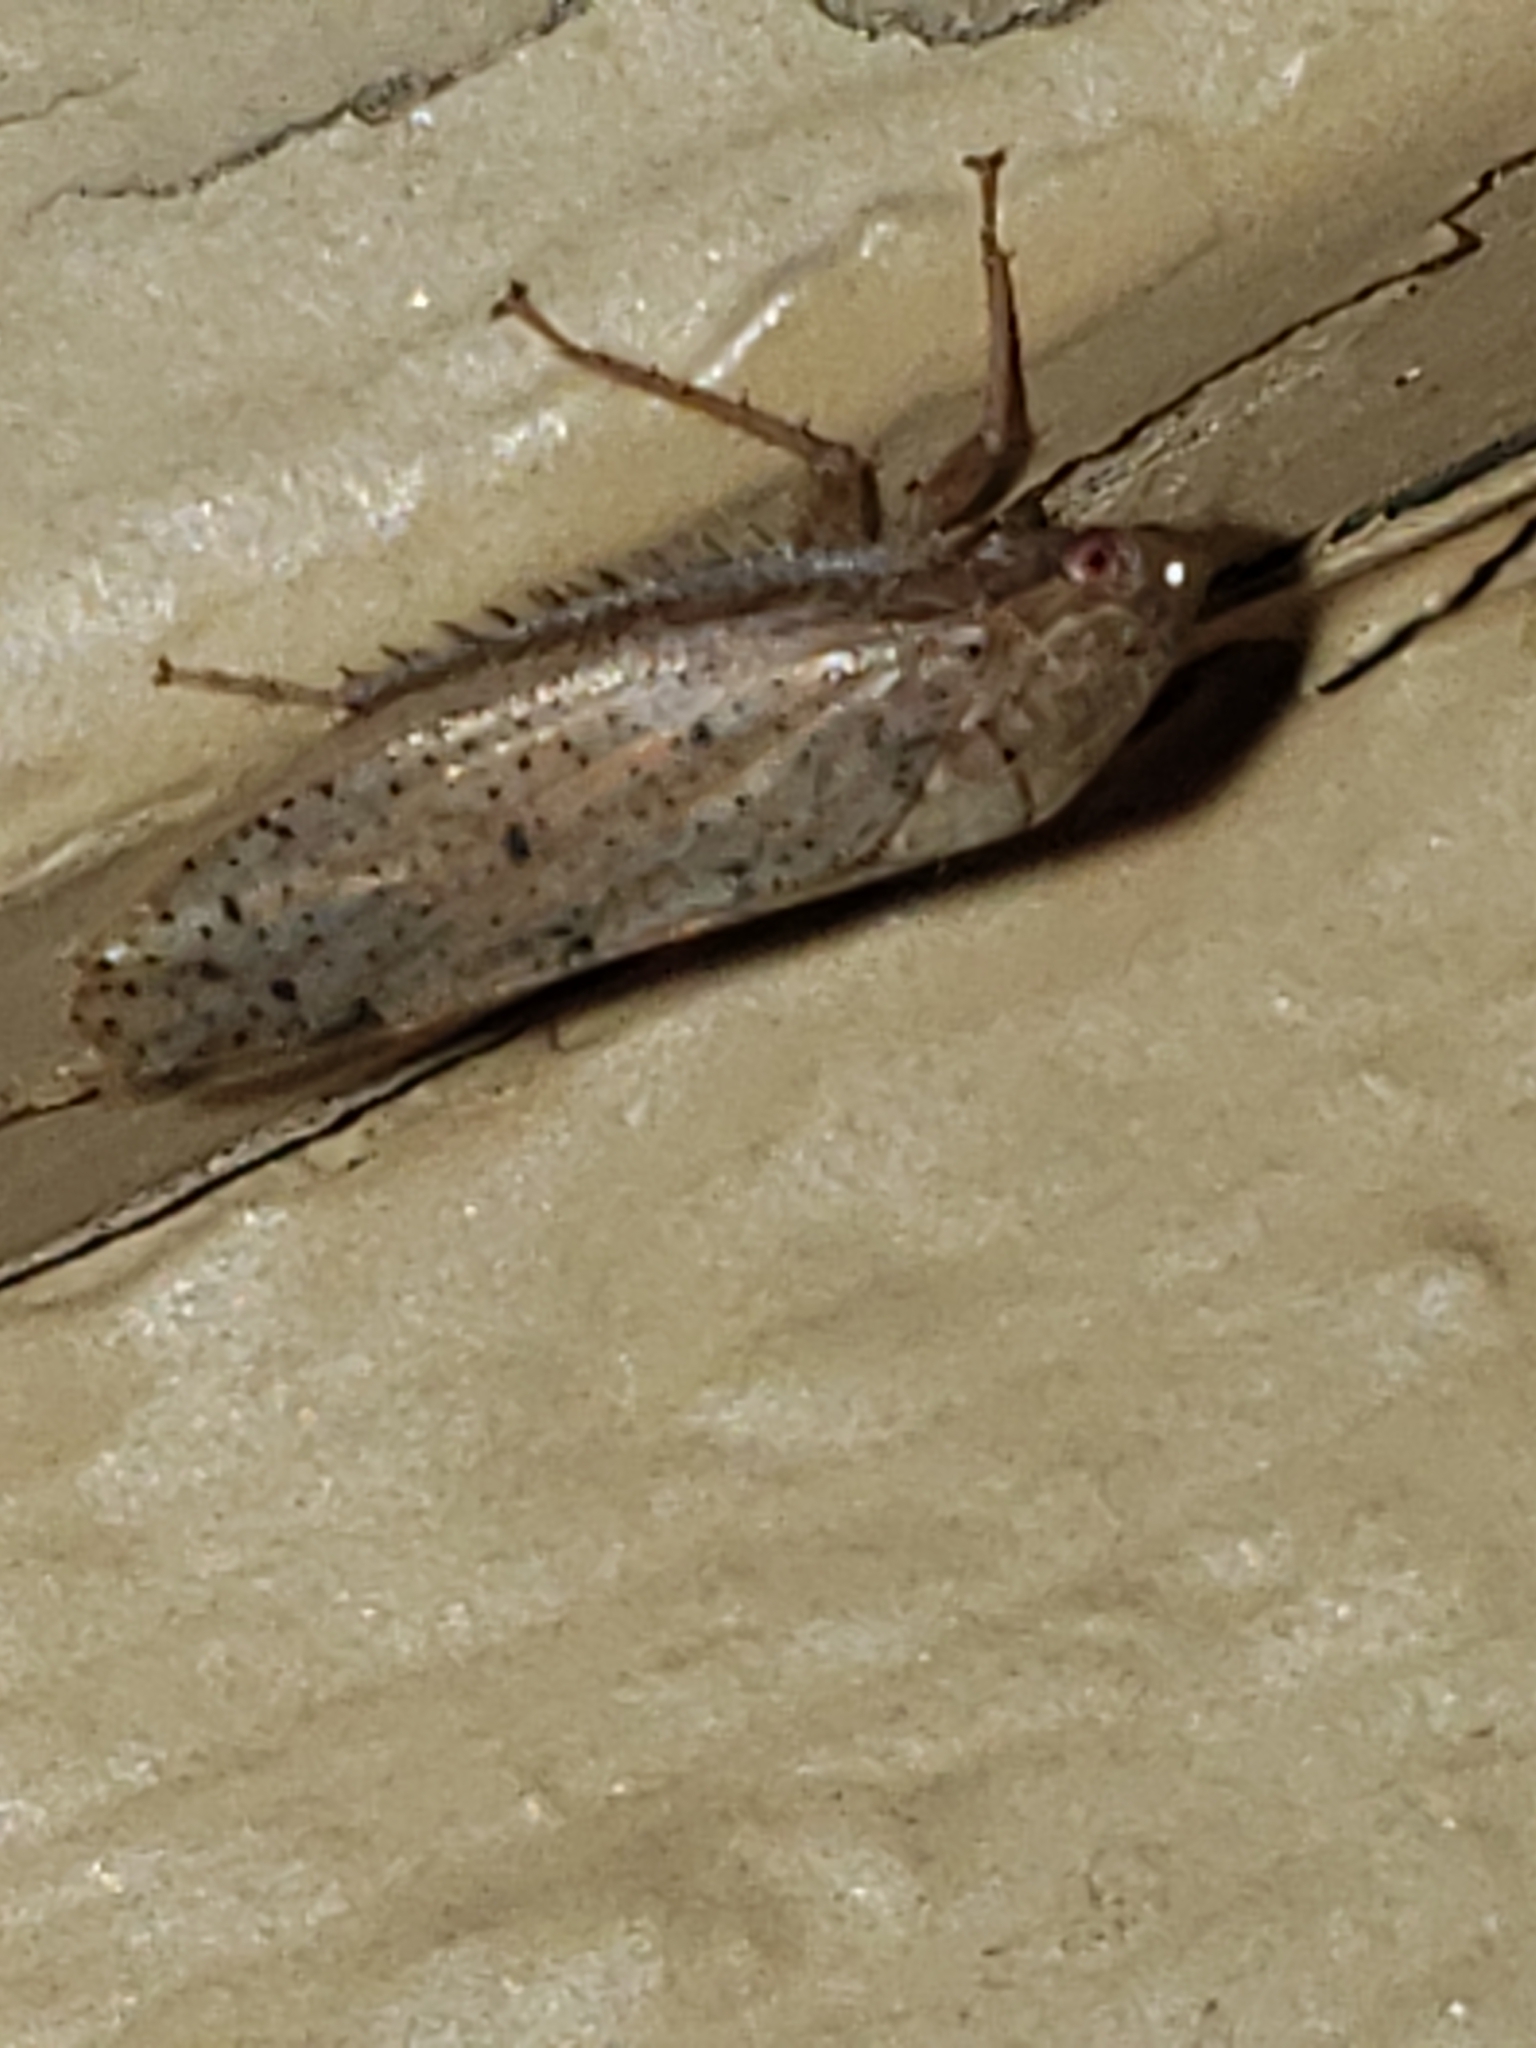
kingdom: Animalia
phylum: Arthropoda
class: Insecta
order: Hemiptera
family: Cicadellidae
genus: Ponana
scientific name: Ponana puncticollis
